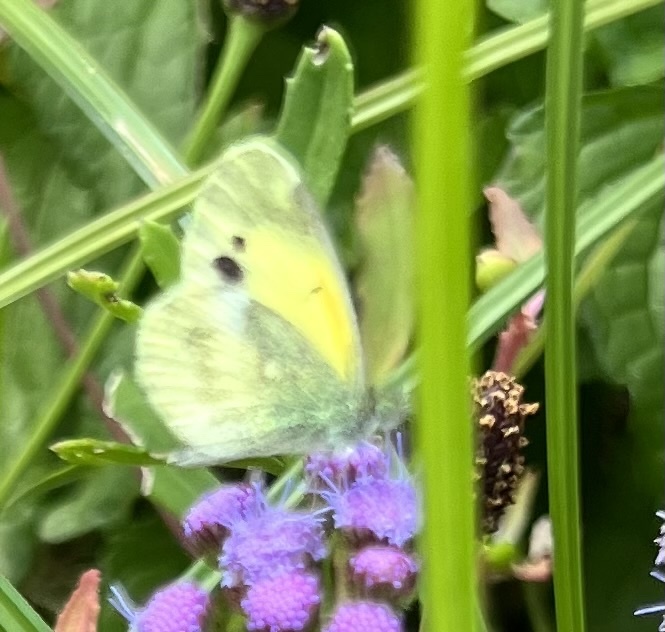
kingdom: Animalia
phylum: Arthropoda
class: Insecta
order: Lepidoptera
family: Pieridae
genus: Nathalis
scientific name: Nathalis iole
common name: Dainty sulphur
